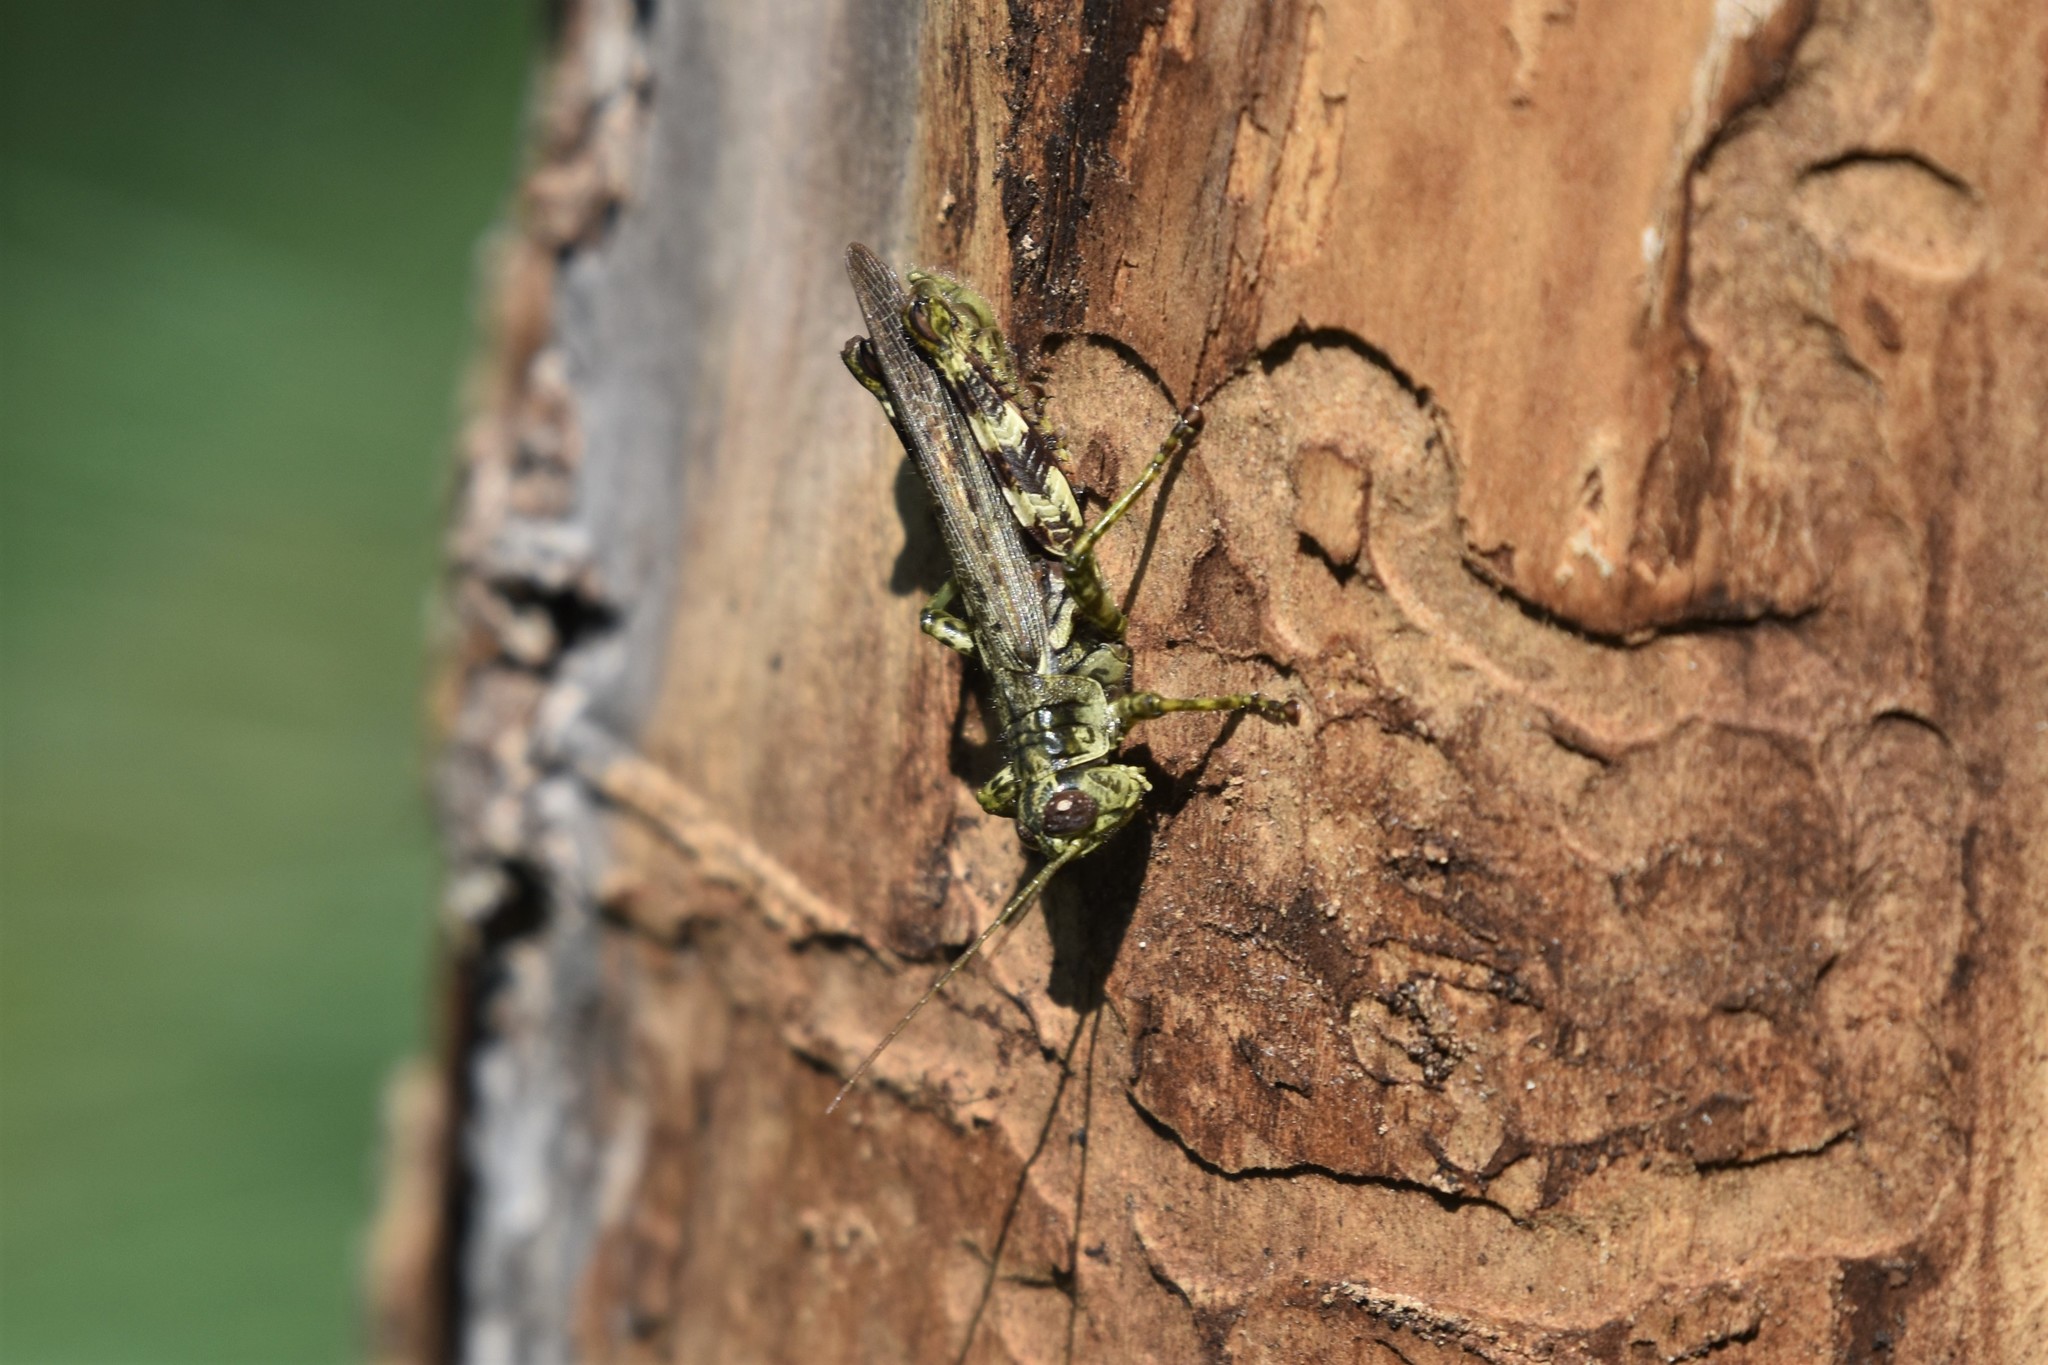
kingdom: Animalia
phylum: Arthropoda
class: Insecta
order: Orthoptera
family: Acrididae
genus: Melanoplus
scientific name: Melanoplus punctulatus
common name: Pine-tree spur-throat grasshopper
